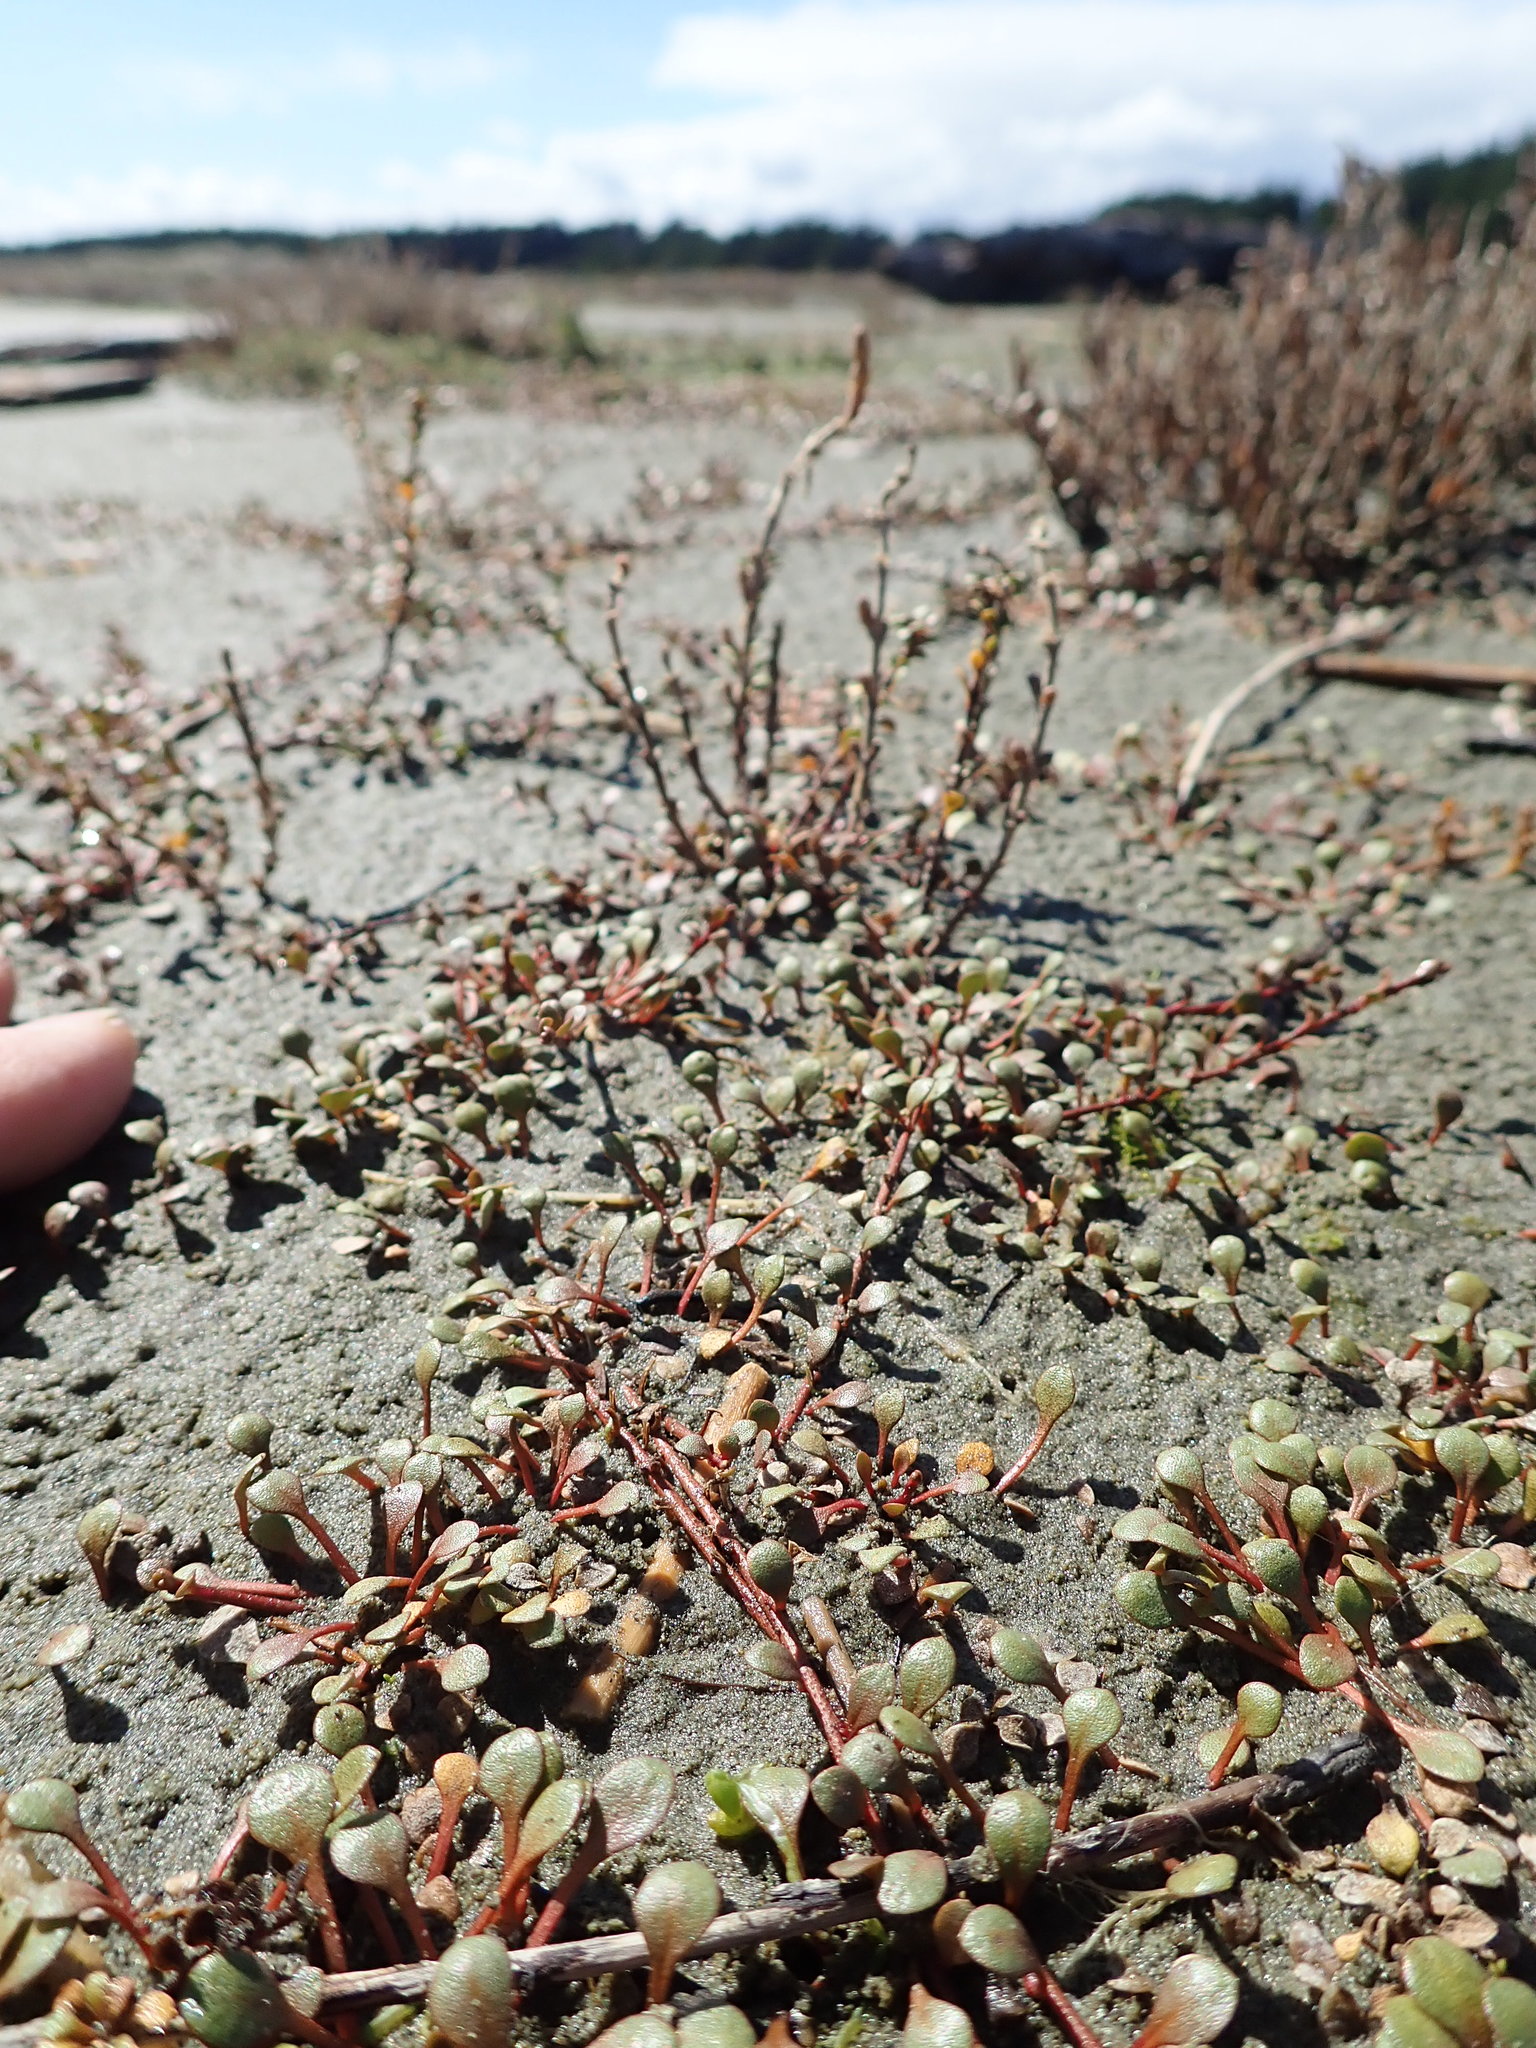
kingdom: Plantae
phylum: Tracheophyta
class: Magnoliopsida
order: Ericales
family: Primulaceae
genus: Samolus
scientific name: Samolus repens
